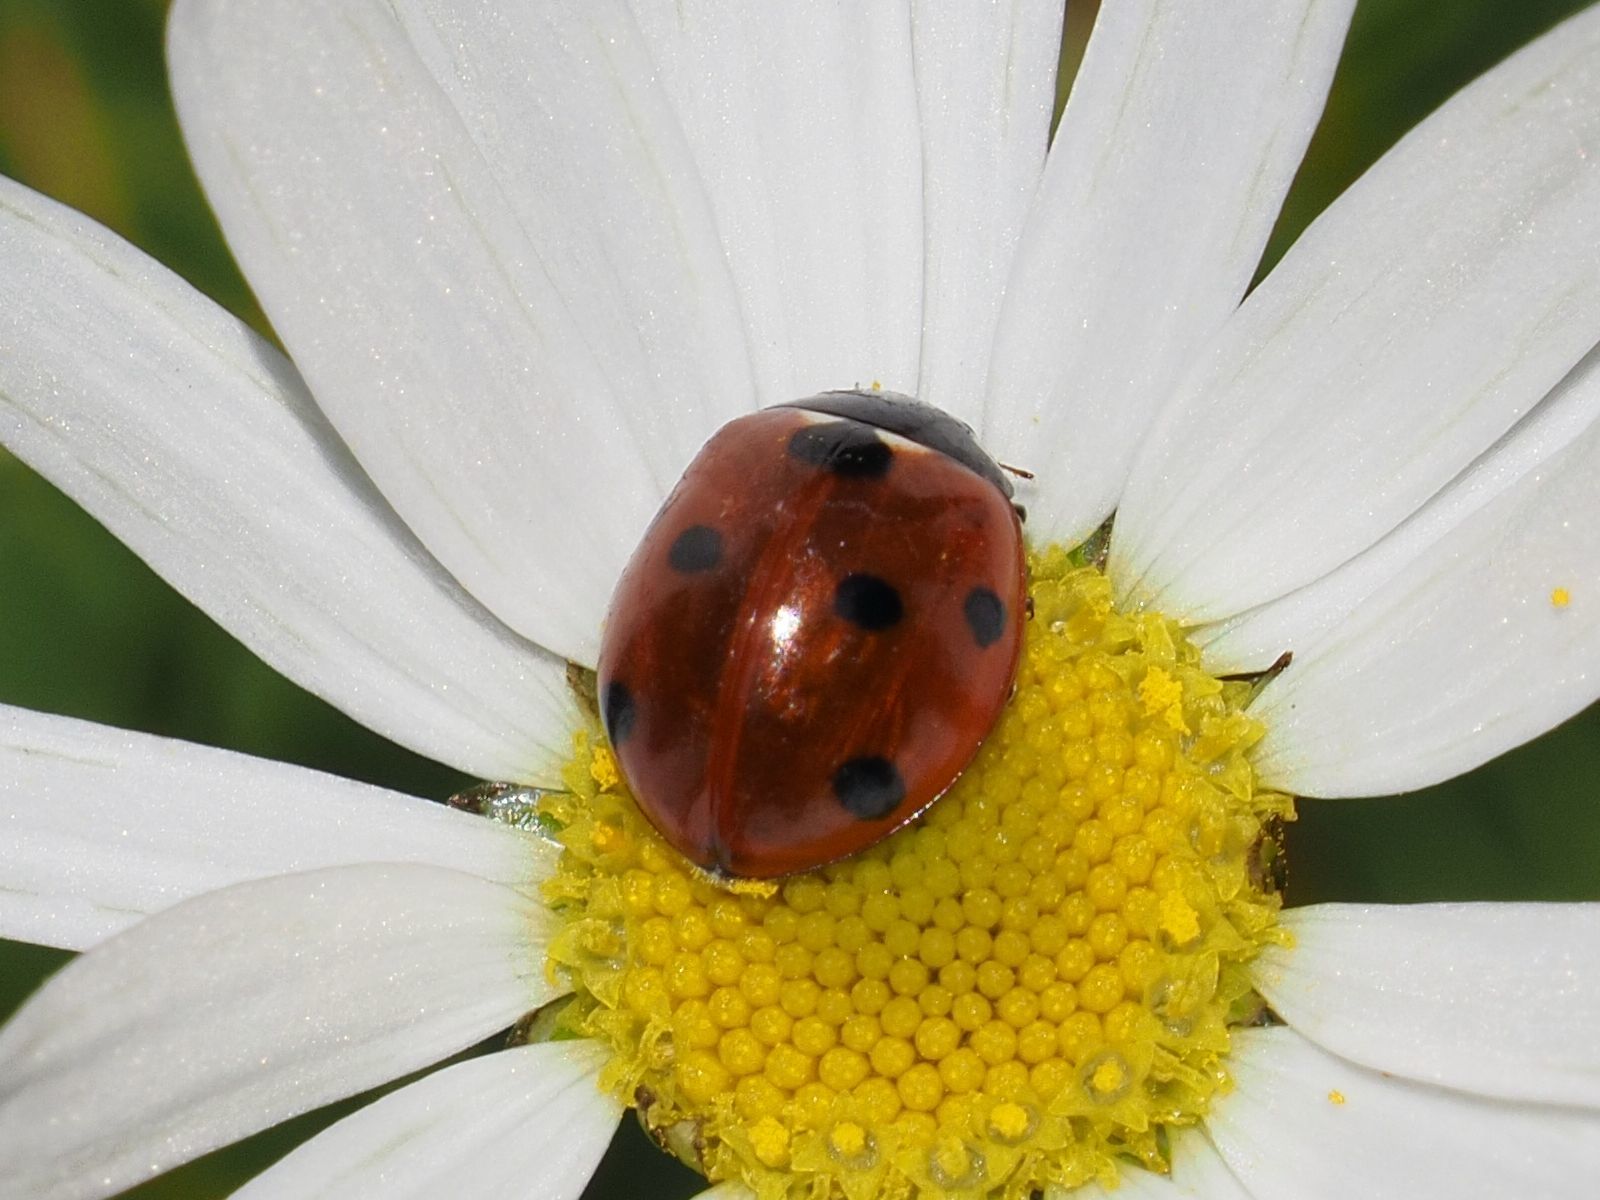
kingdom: Animalia
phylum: Arthropoda
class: Insecta
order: Coleoptera
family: Coccinellidae
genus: Coccinella
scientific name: Coccinella septempunctata
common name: Sevenspotted lady beetle
